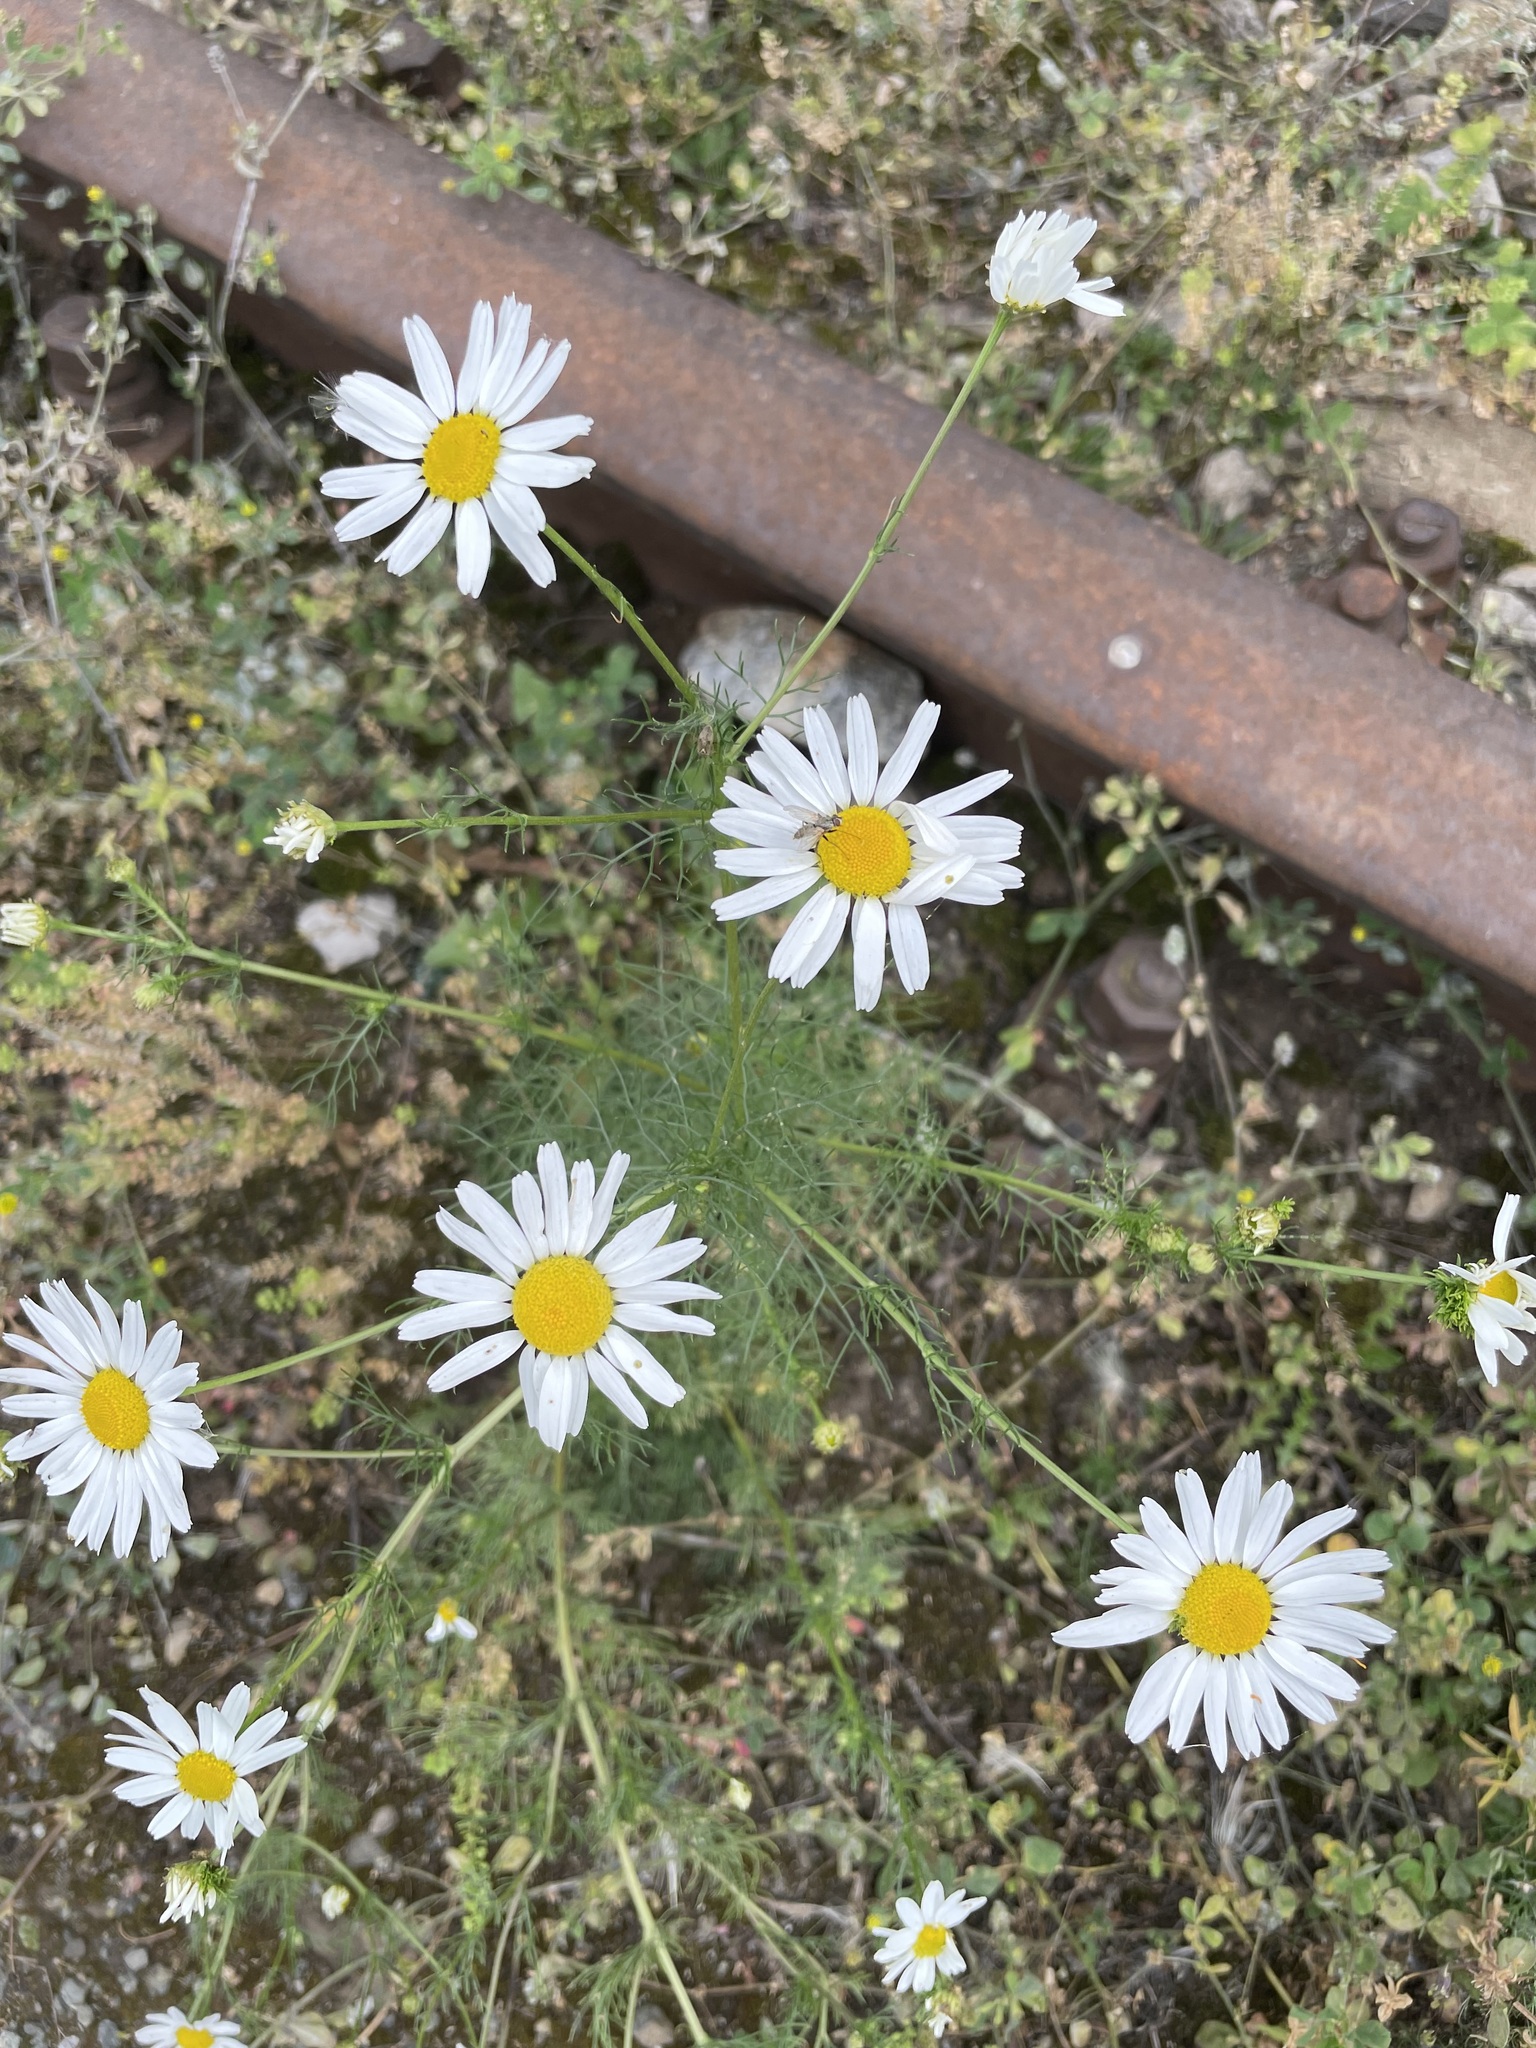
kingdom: Plantae
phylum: Tracheophyta
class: Magnoliopsida
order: Asterales
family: Asteraceae
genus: Tripleurospermum
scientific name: Tripleurospermum inodorum
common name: Scentless mayweed
